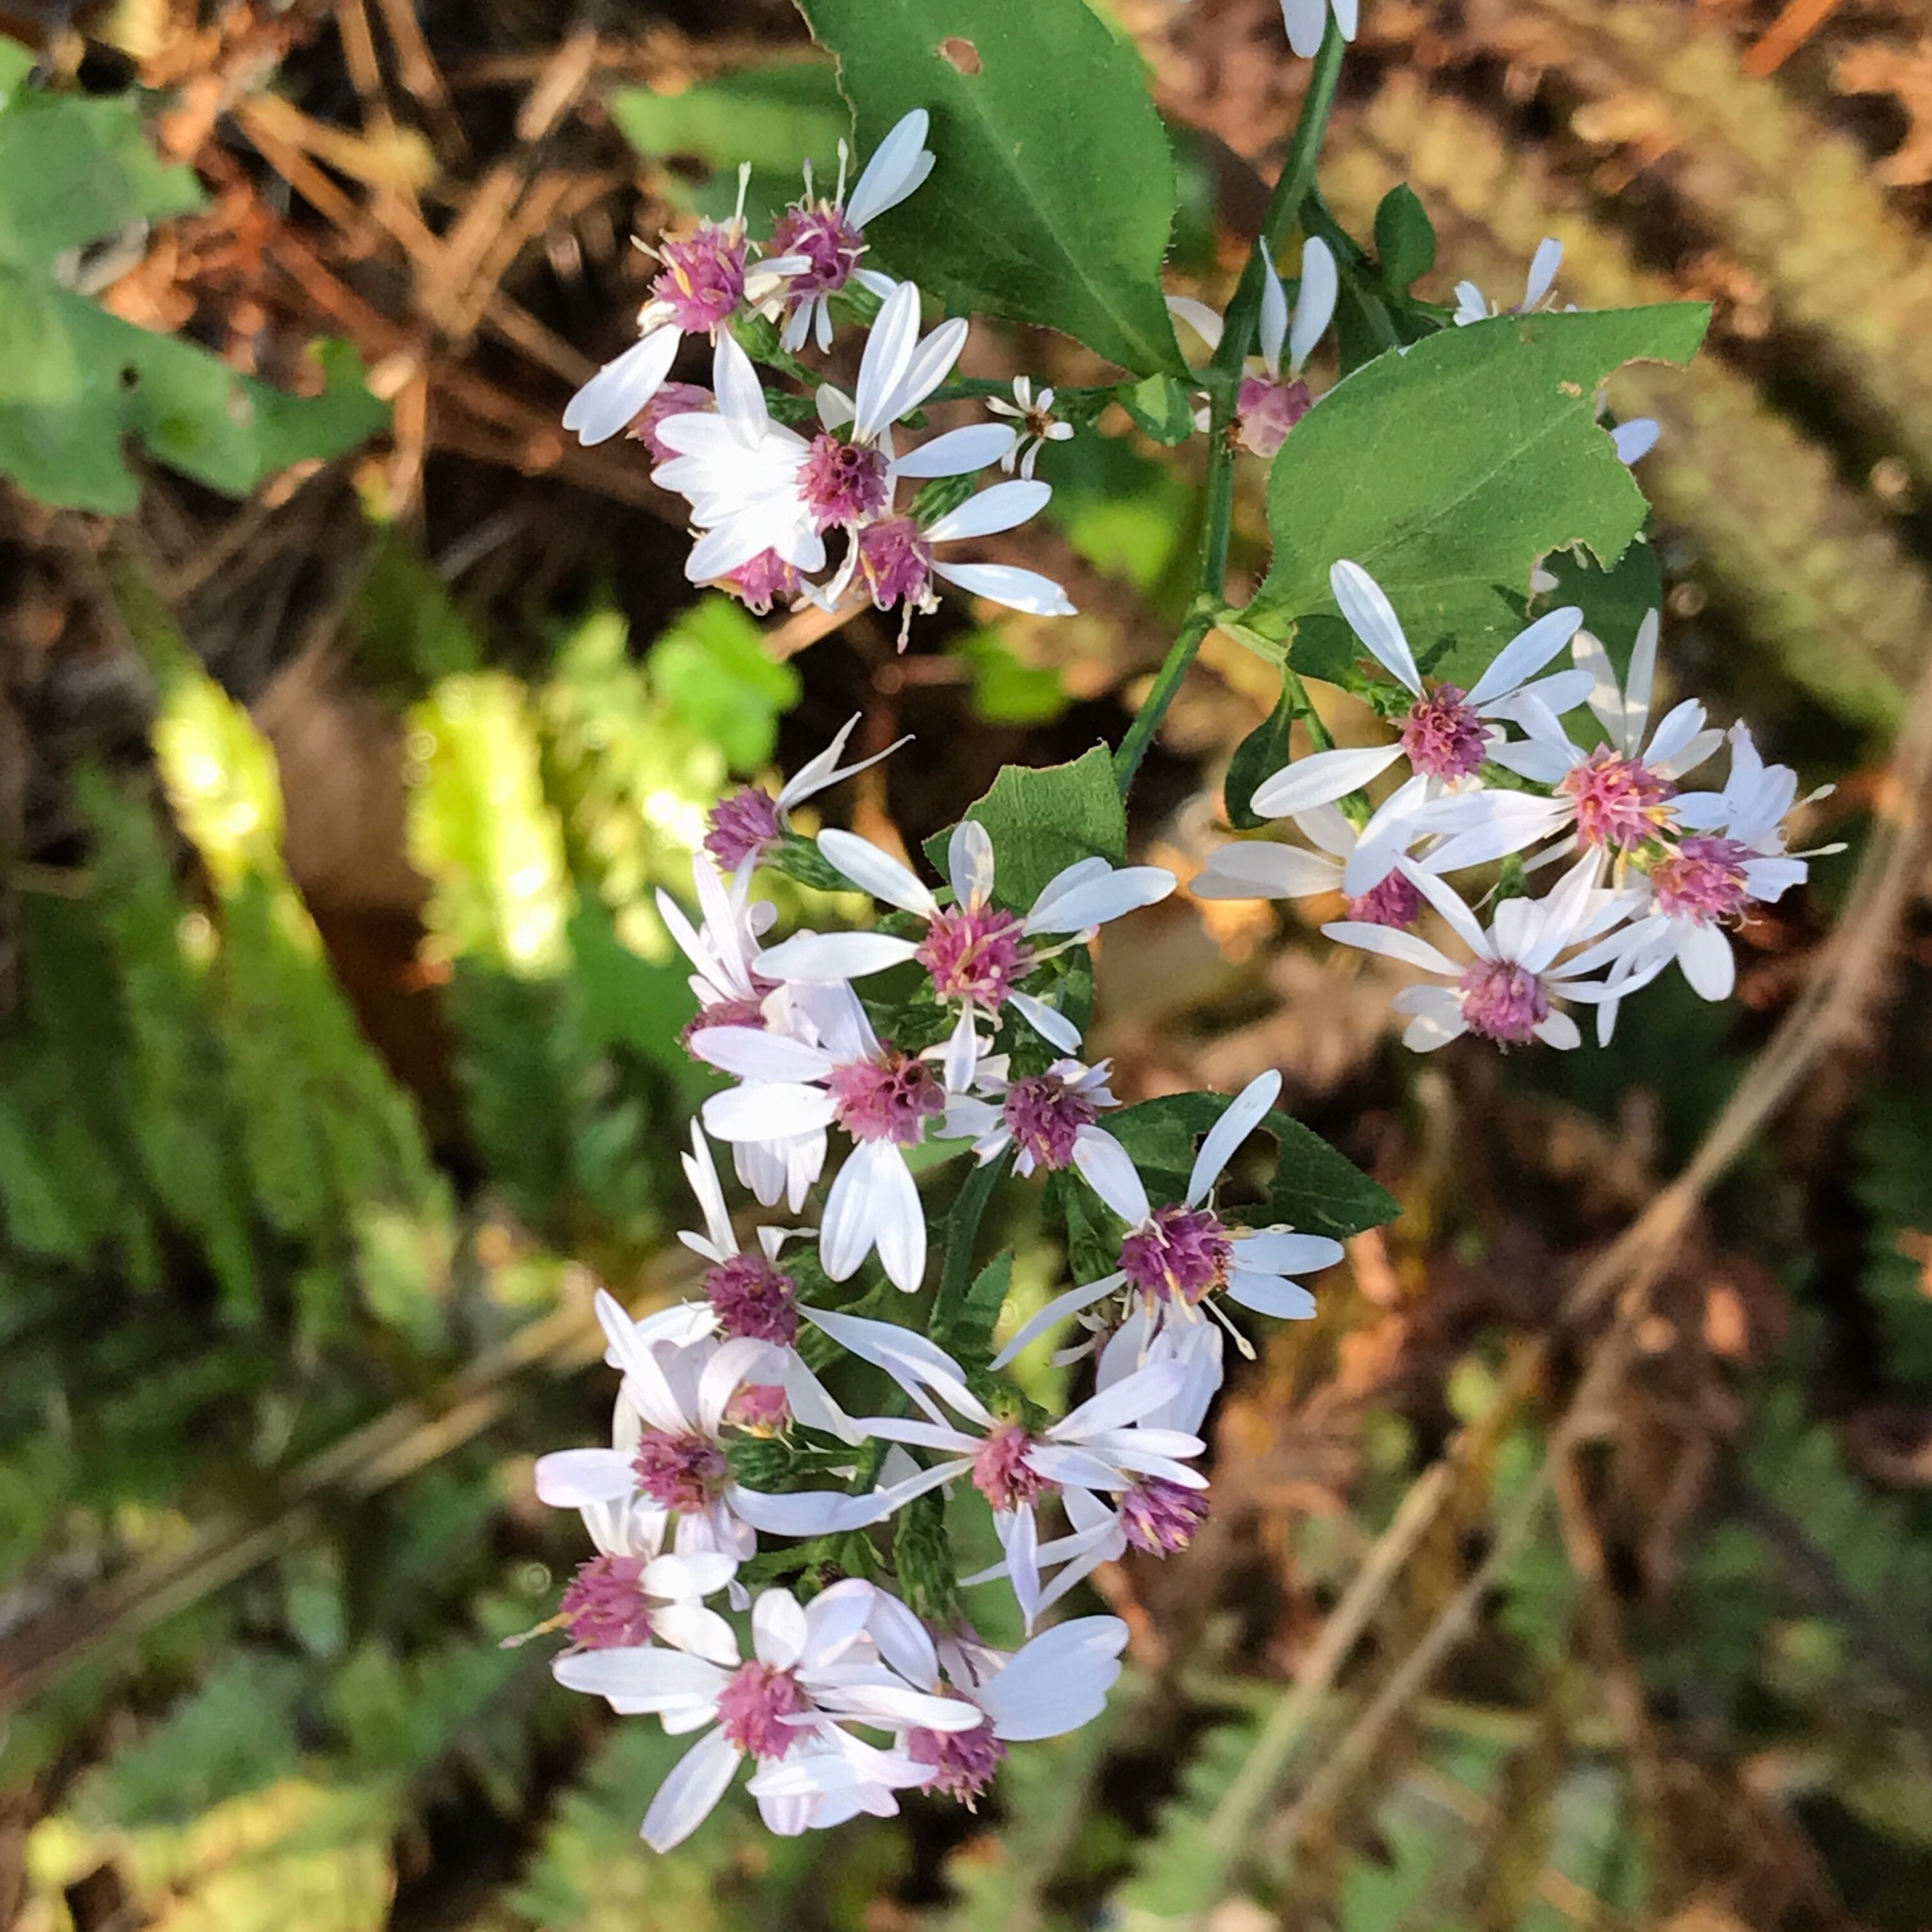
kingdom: Plantae
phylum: Tracheophyta
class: Magnoliopsida
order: Asterales
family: Asteraceae
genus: Symphyotrichum
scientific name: Symphyotrichum cordifolium
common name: Beeweed
